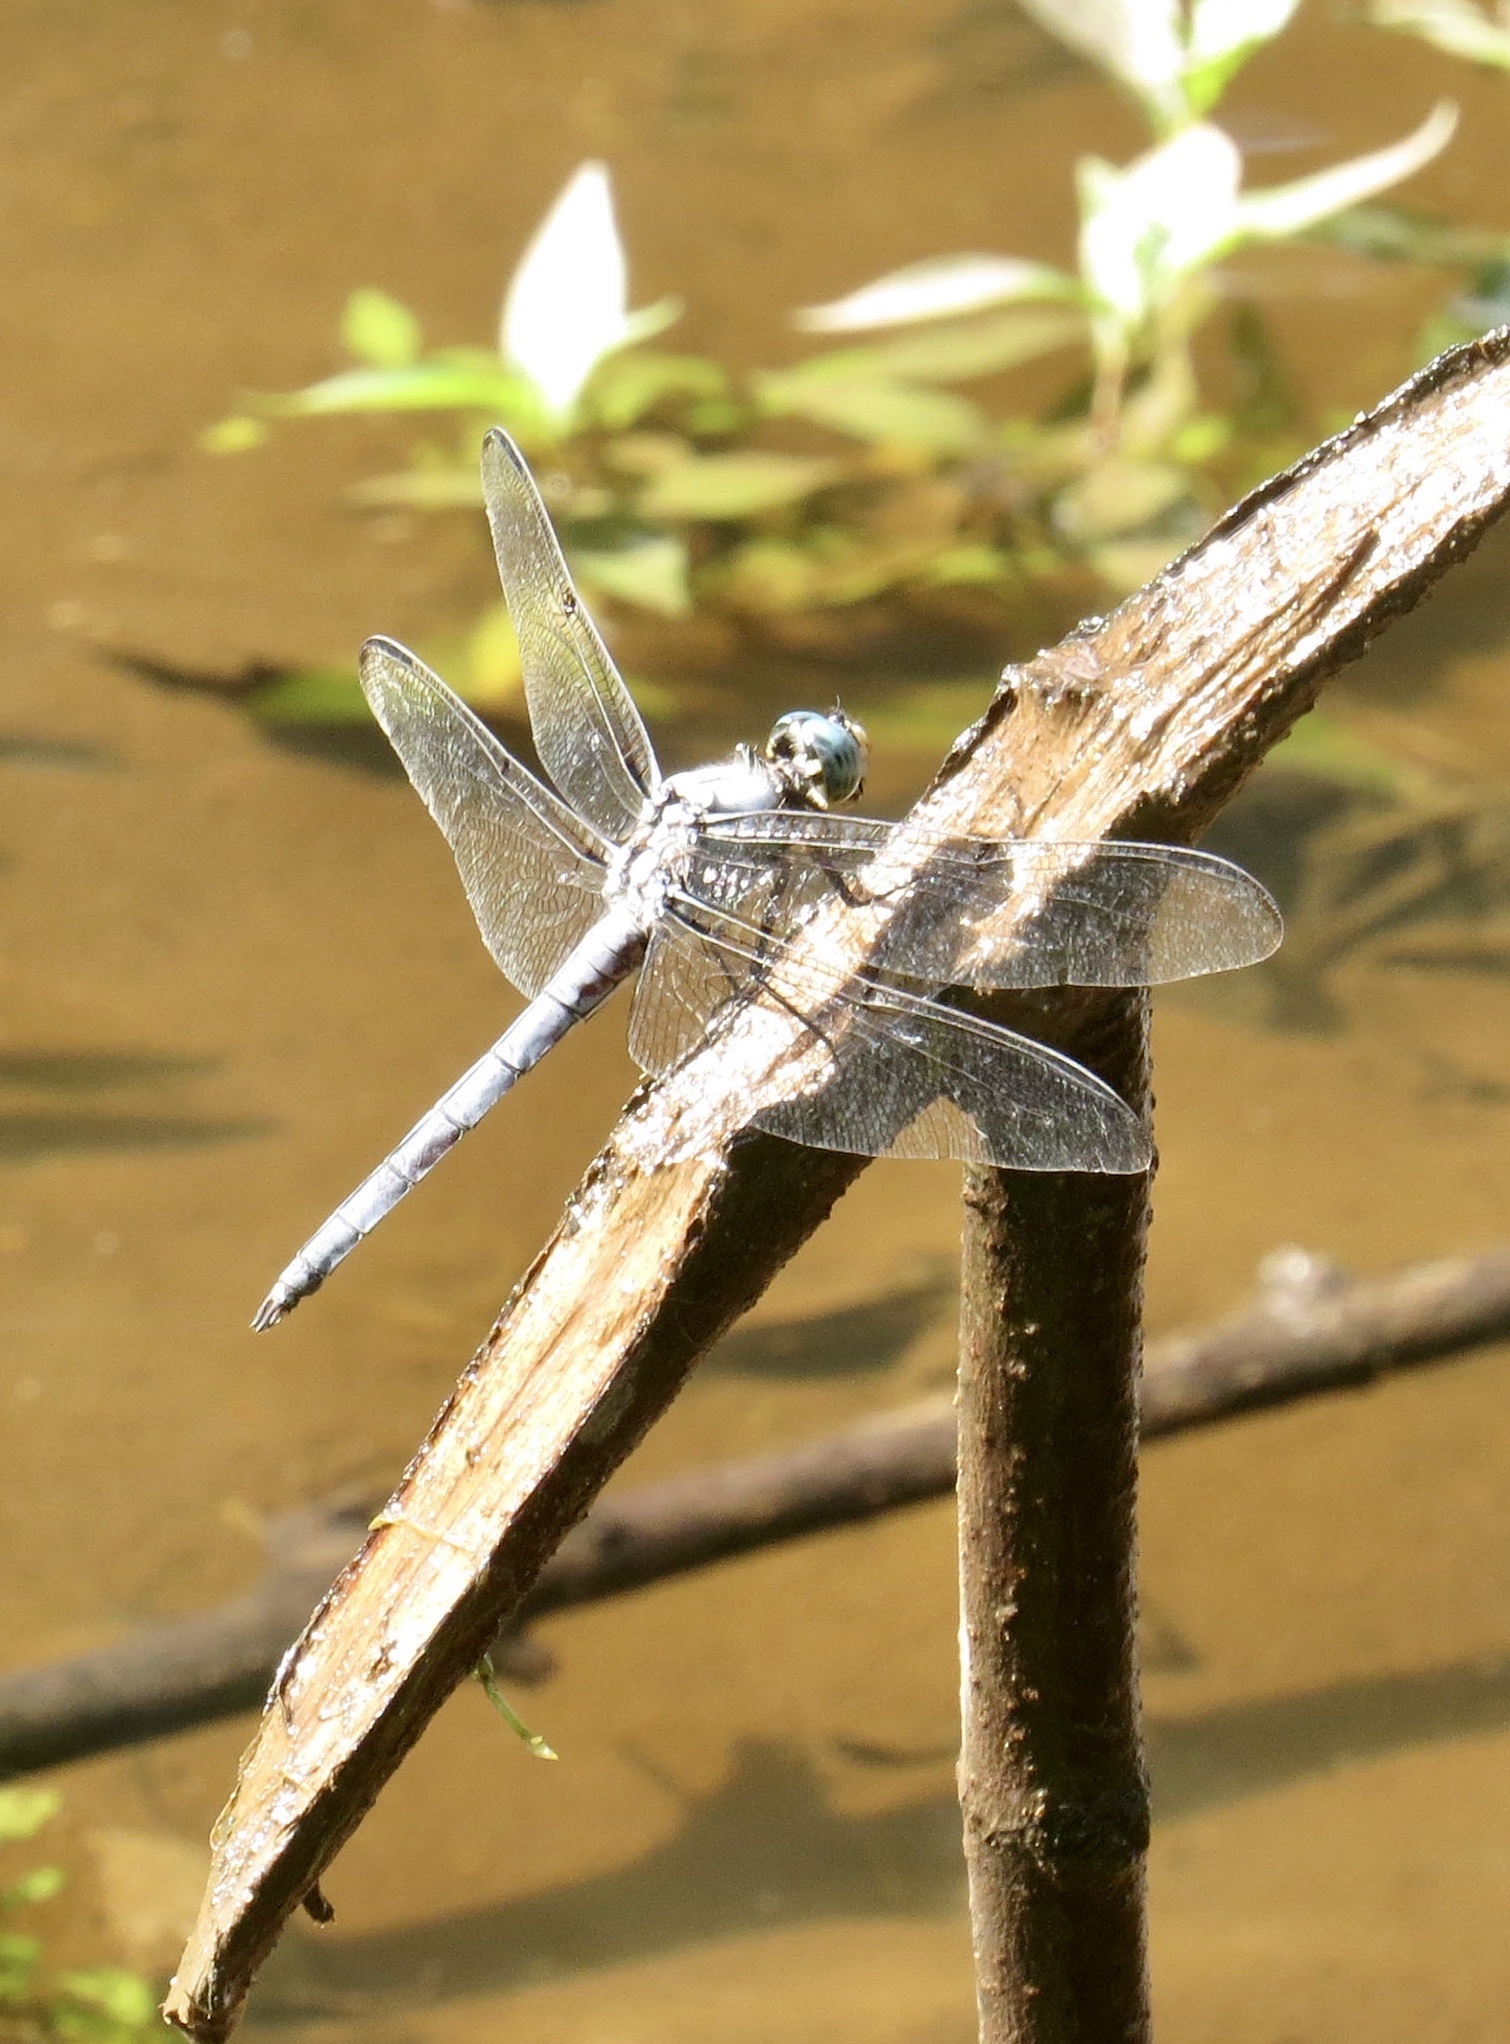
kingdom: Animalia
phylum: Arthropoda
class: Insecta
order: Odonata
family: Libellulidae
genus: Libellula
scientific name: Libellula vibrans
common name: Great blue skimmer
